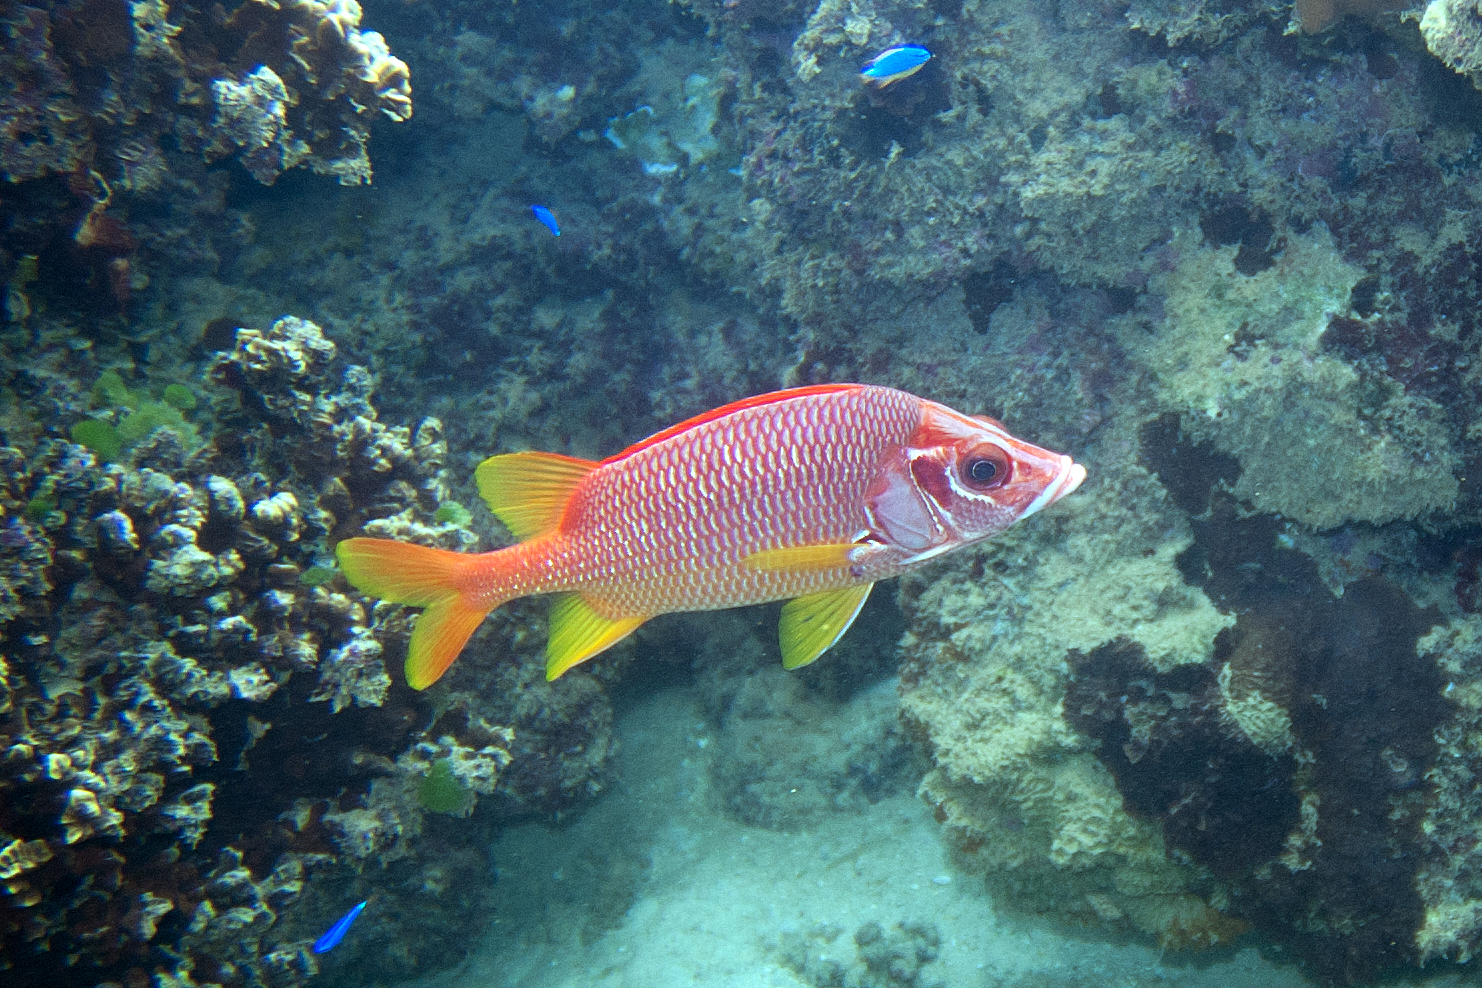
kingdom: Animalia
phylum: Chordata
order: Beryciformes
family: Holocentridae
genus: Sargocentron
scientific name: Sargocentron spiniferum
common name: Giant squirrelfish
